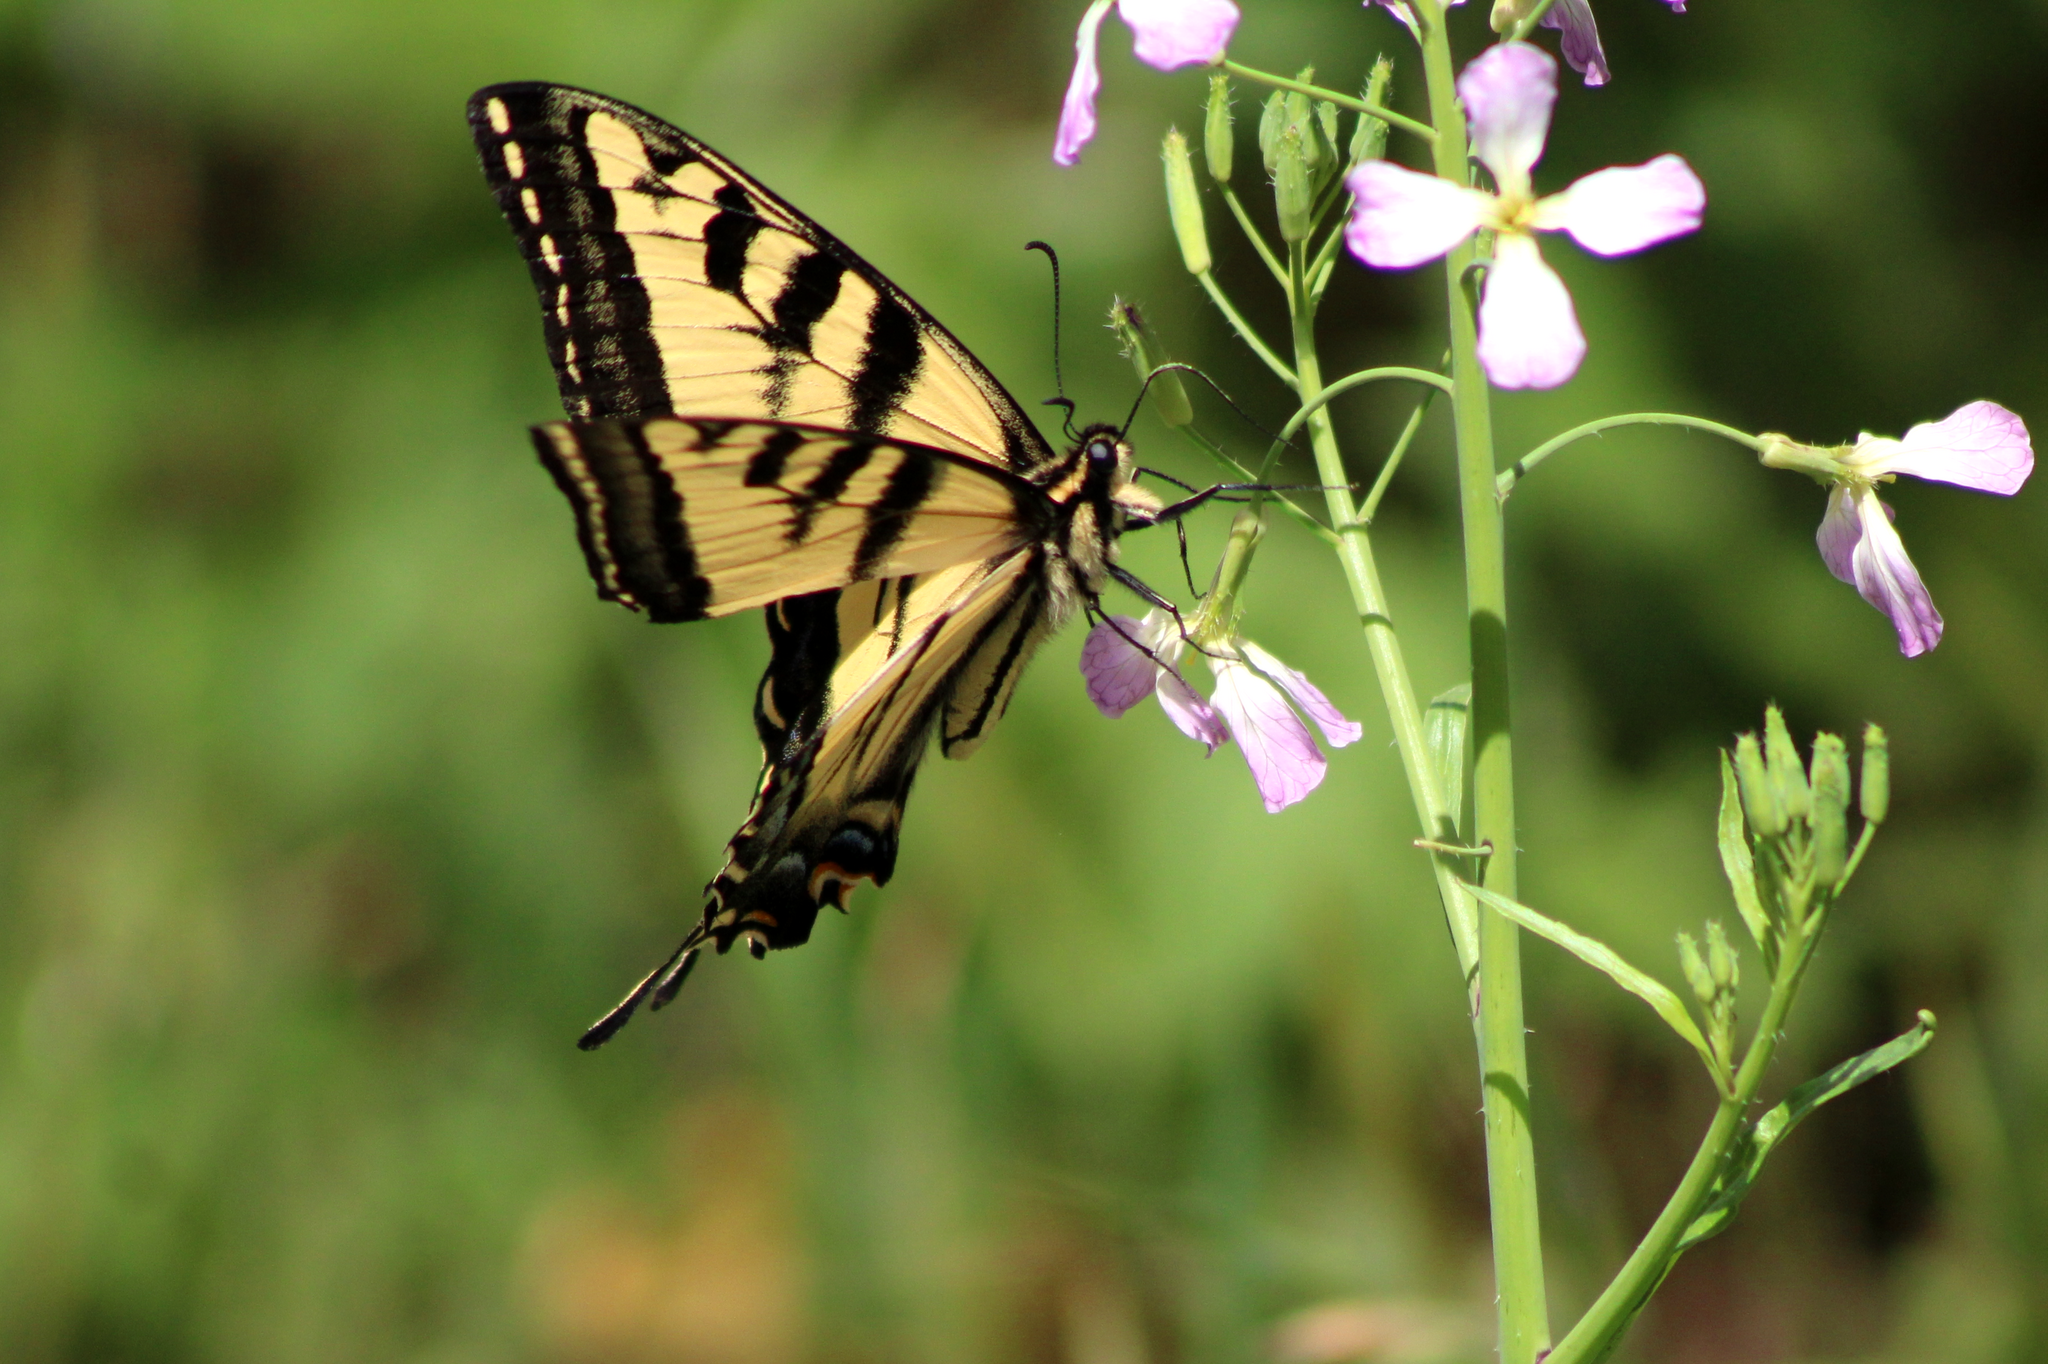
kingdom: Animalia
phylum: Arthropoda
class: Insecta
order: Lepidoptera
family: Papilionidae
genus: Papilio
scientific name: Papilio rutulus
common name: Western tiger swallowtail
